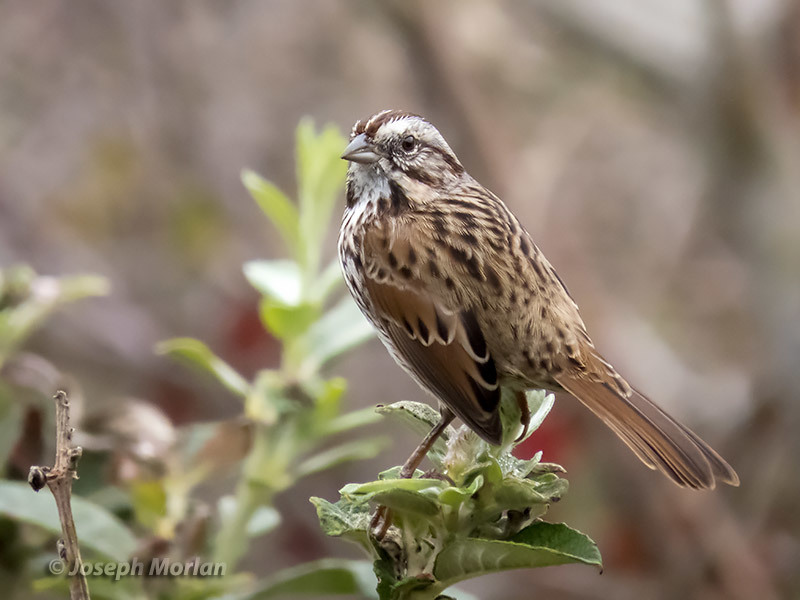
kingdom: Animalia
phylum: Chordata
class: Aves
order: Passeriformes
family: Passerellidae
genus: Melospiza
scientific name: Melospiza melodia
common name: Song sparrow
